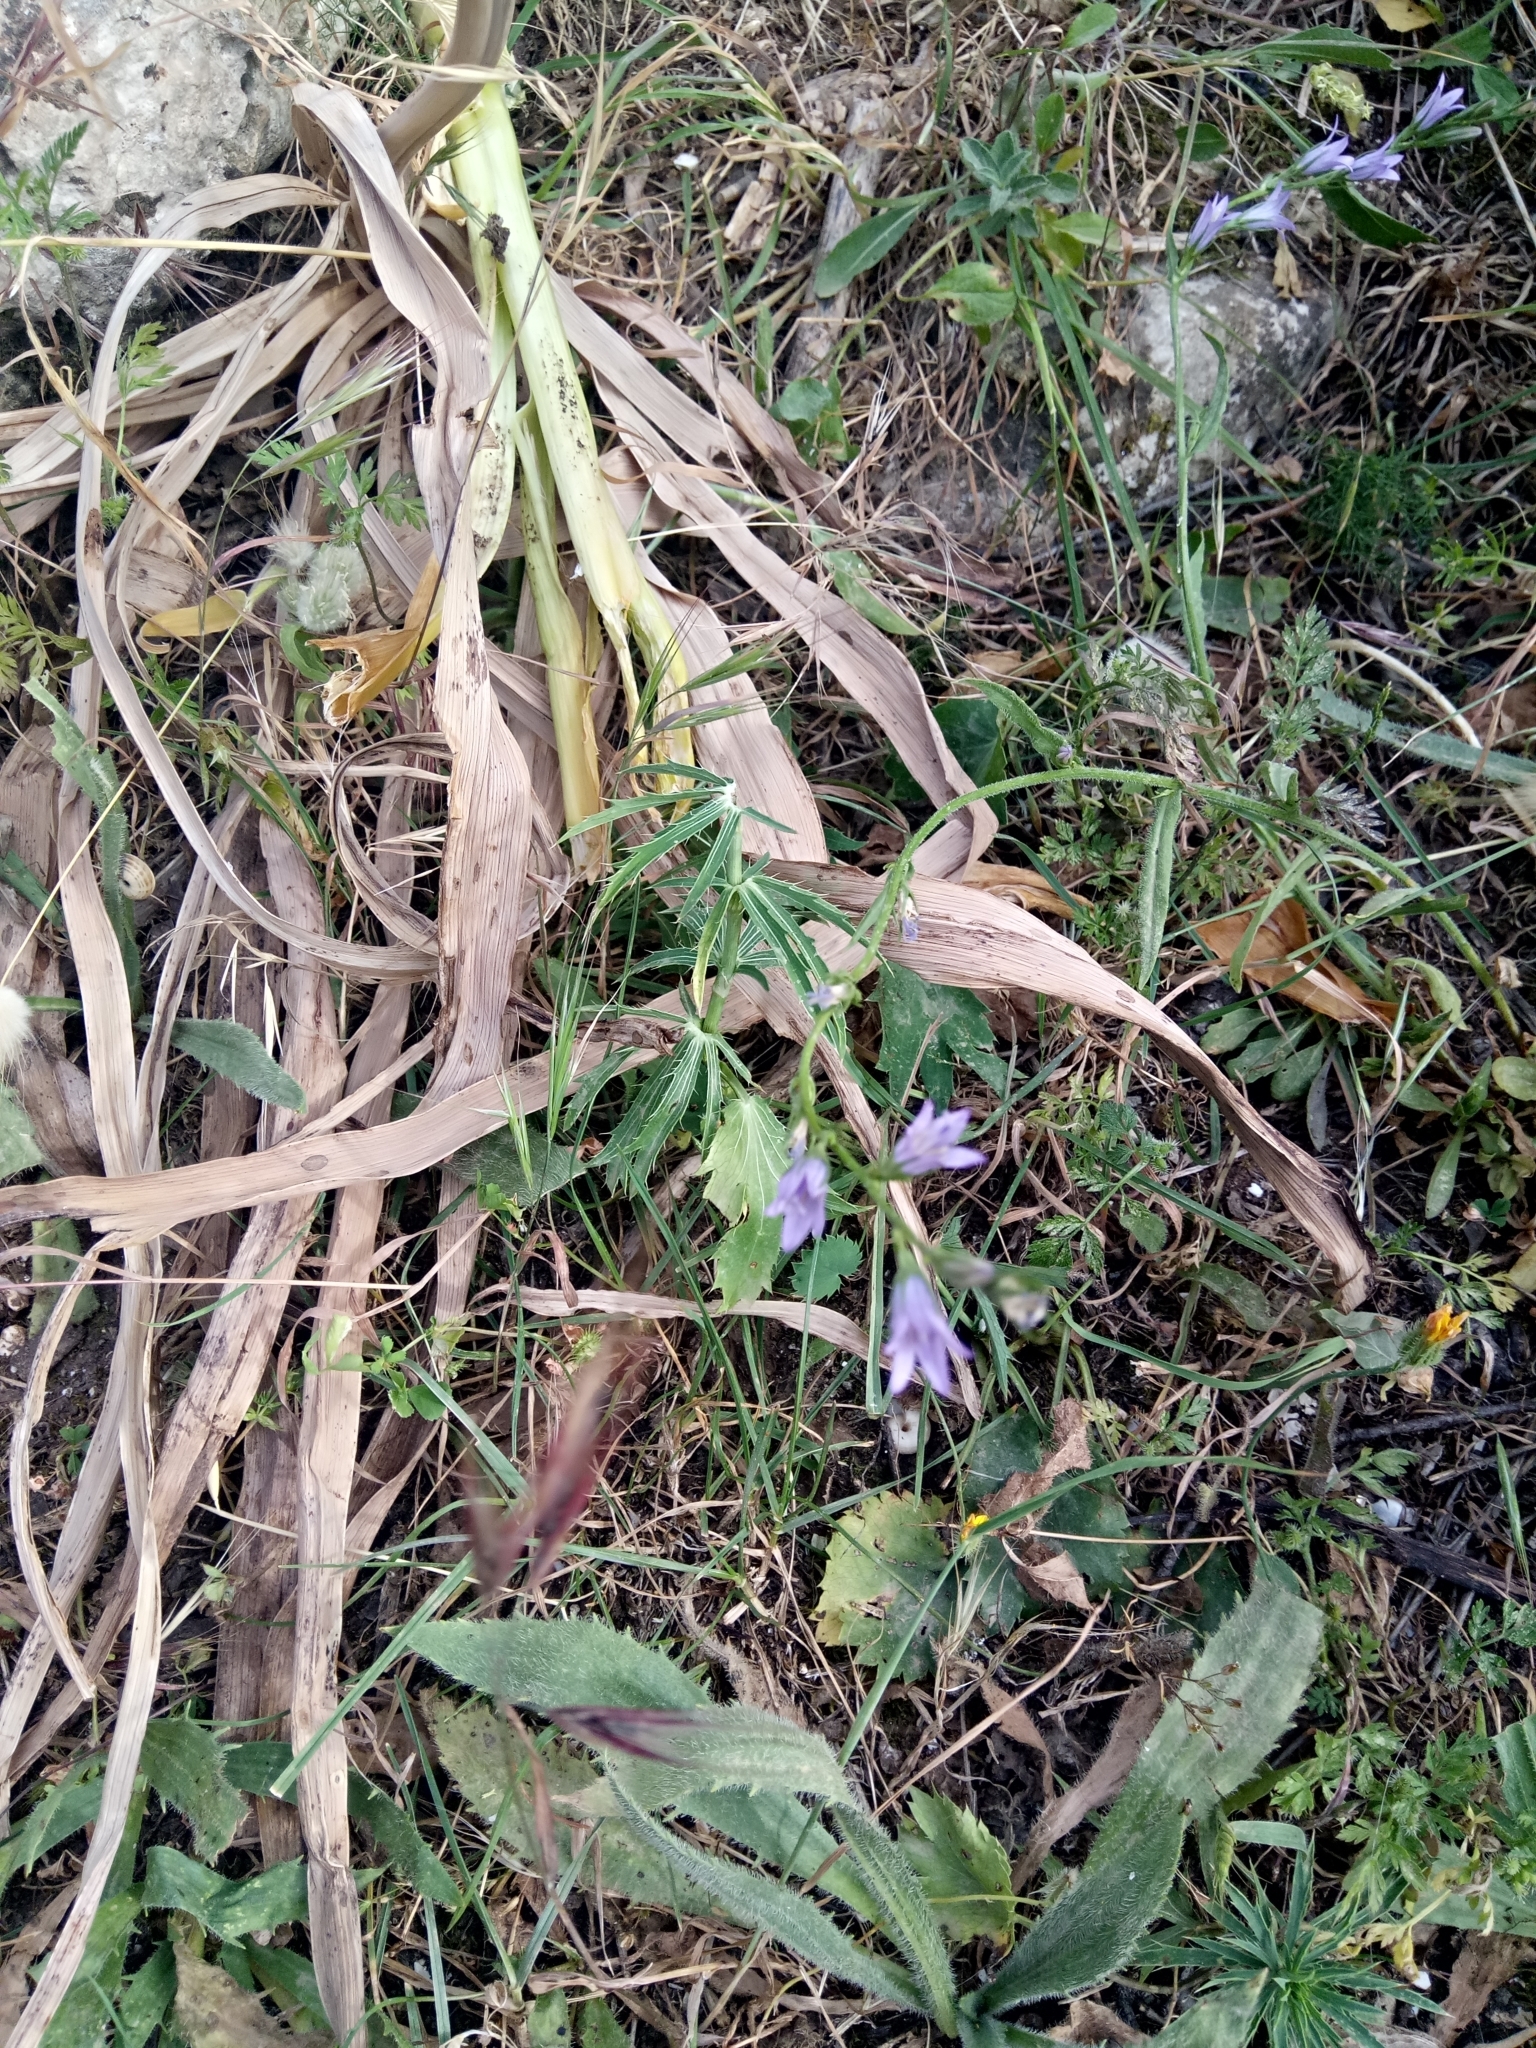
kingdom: Plantae
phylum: Tracheophyta
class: Magnoliopsida
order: Asterales
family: Campanulaceae
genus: Campanula
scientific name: Campanula rapunculus
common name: Rampion bellflower
